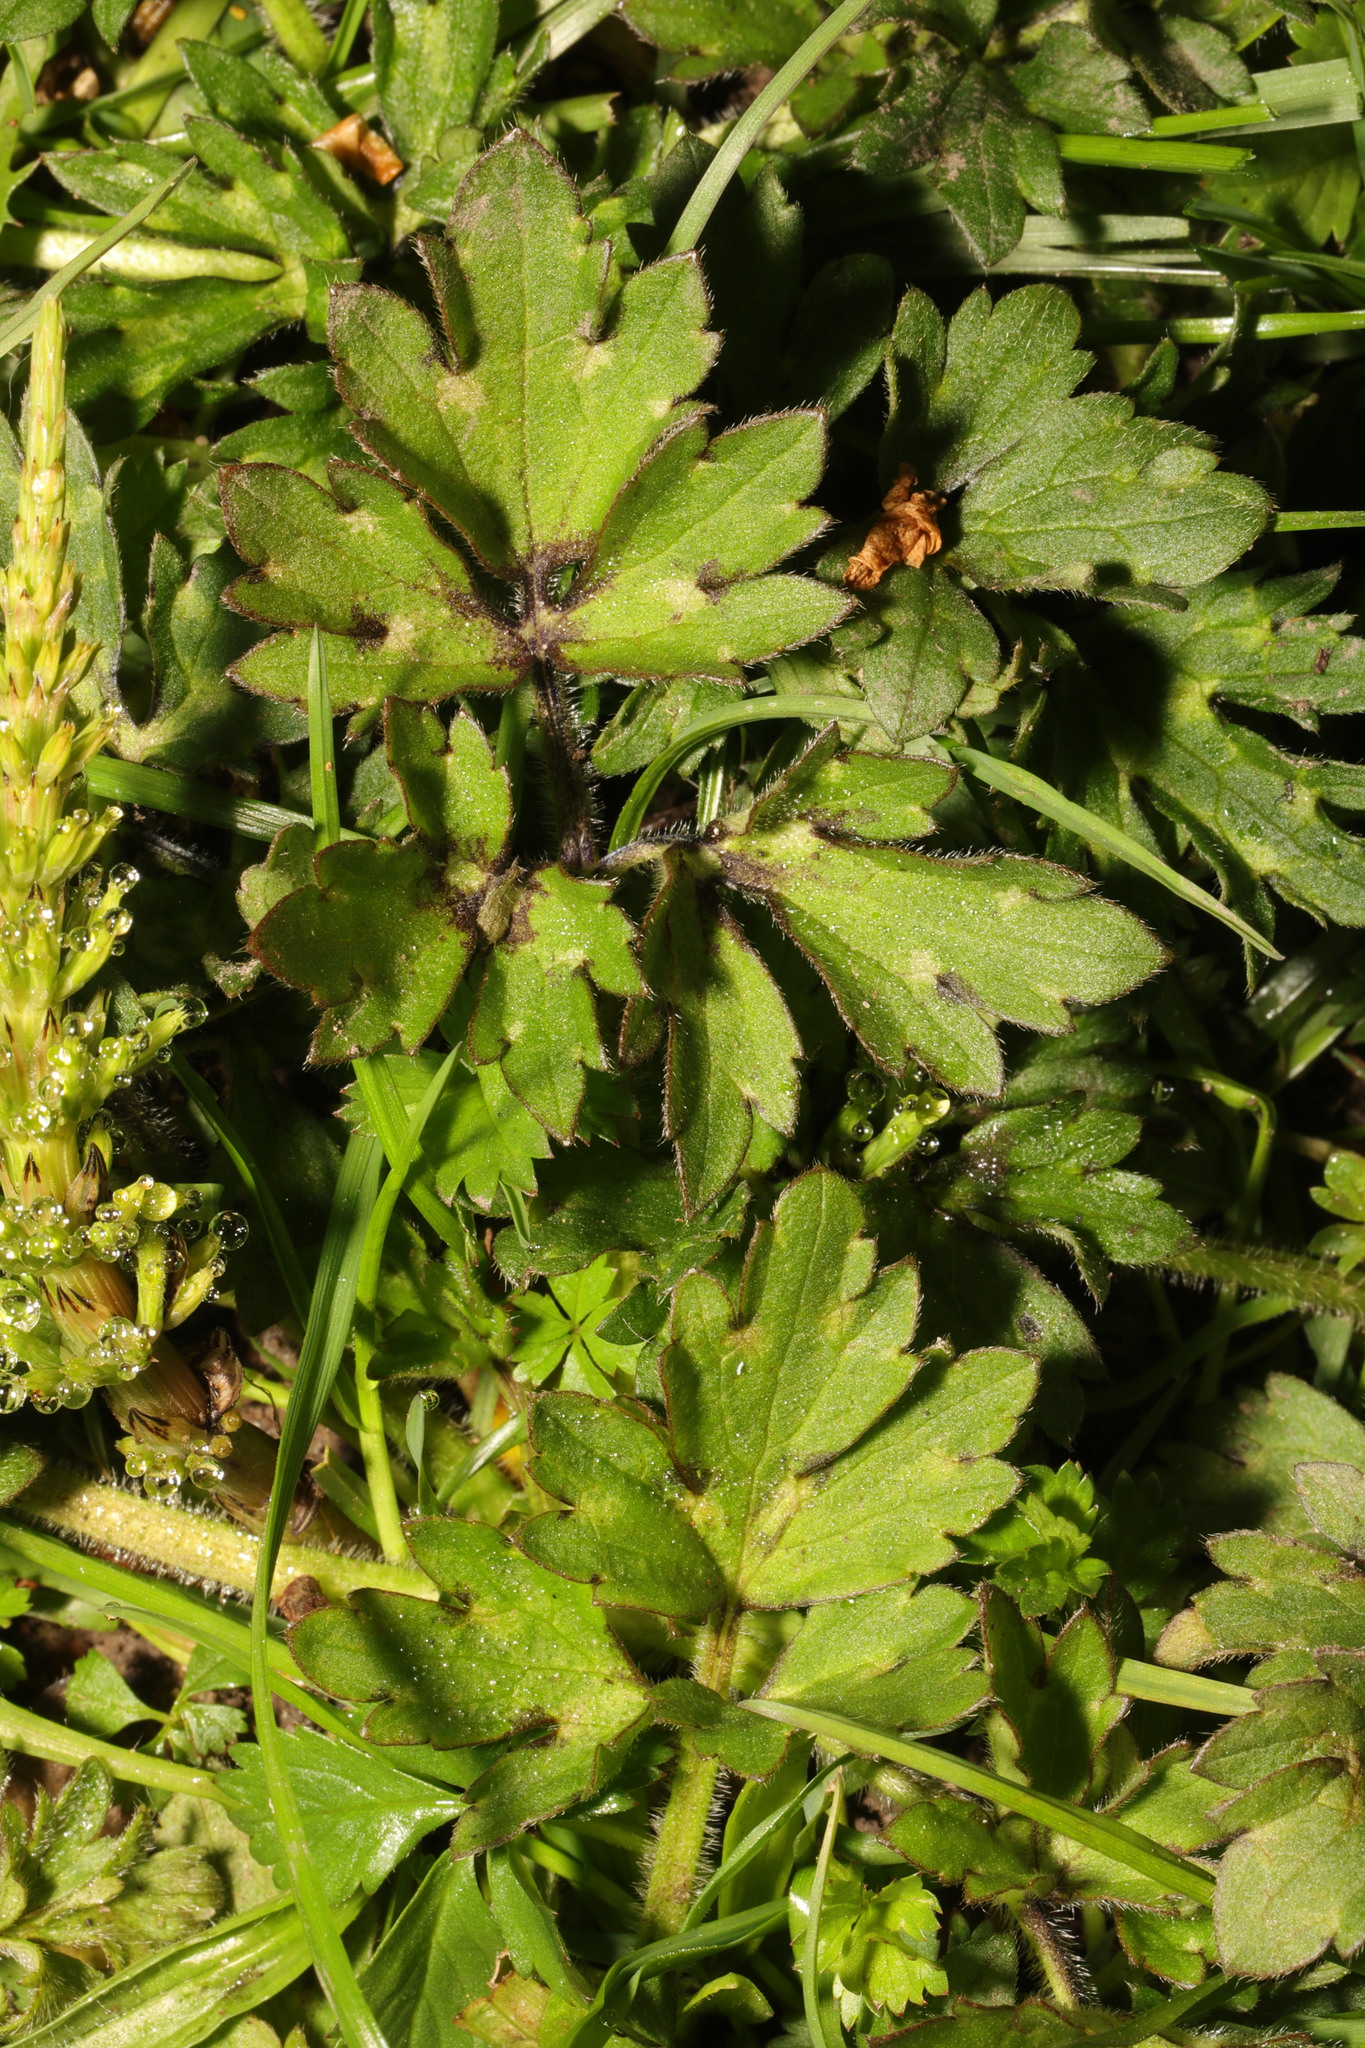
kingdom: Plantae
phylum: Tracheophyta
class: Magnoliopsida
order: Ranunculales
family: Ranunculaceae
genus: Ranunculus
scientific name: Ranunculus repens
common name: Creeping buttercup
